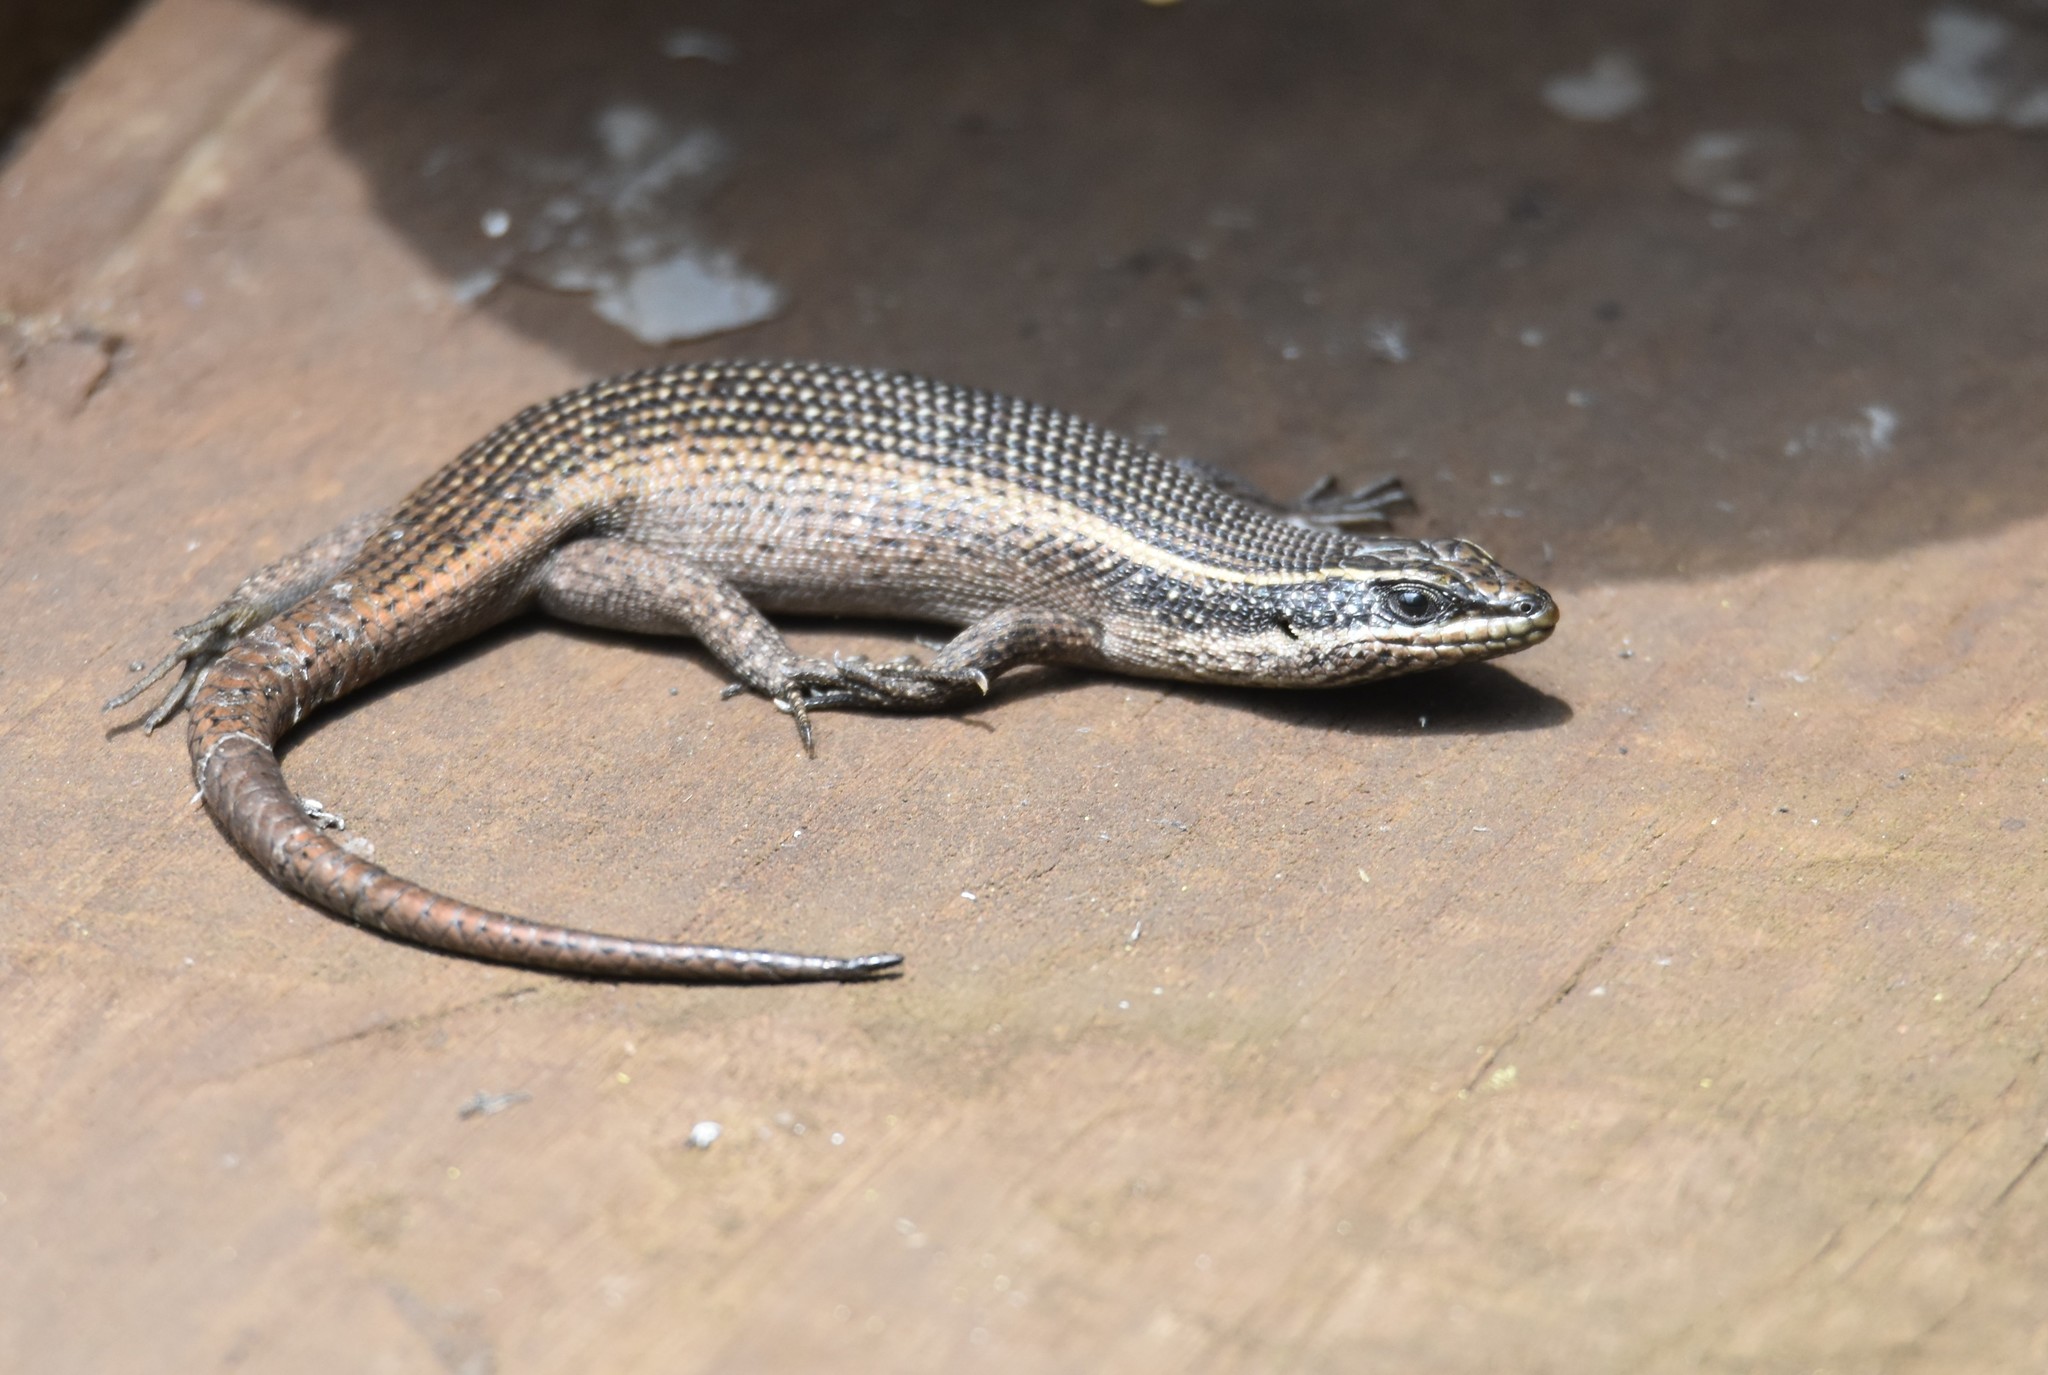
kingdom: Animalia
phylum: Chordata
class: Squamata
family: Scincidae
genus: Trachylepis
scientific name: Trachylepis punctatissima
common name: Montane speckled skink
